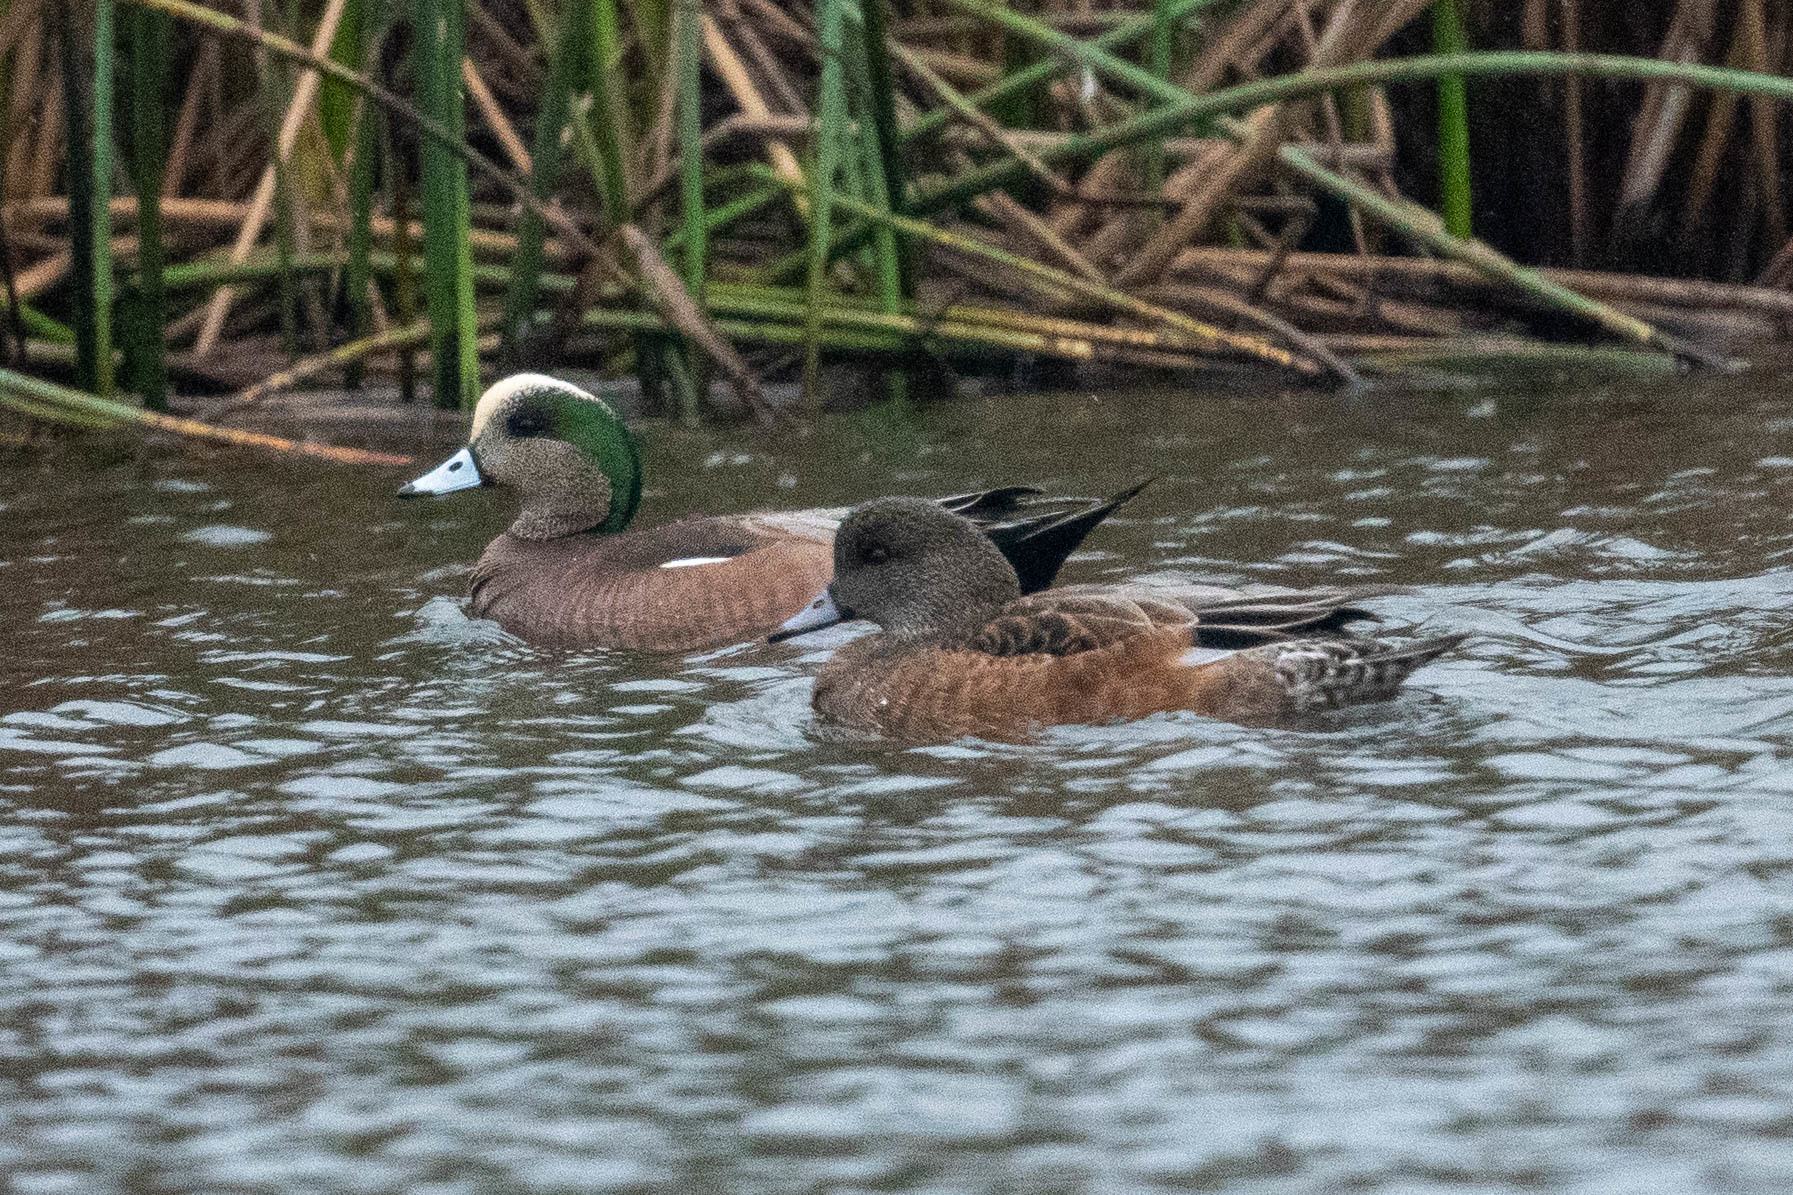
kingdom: Animalia
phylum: Chordata
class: Aves
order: Anseriformes
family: Anatidae
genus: Mareca
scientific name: Mareca americana
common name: American wigeon
